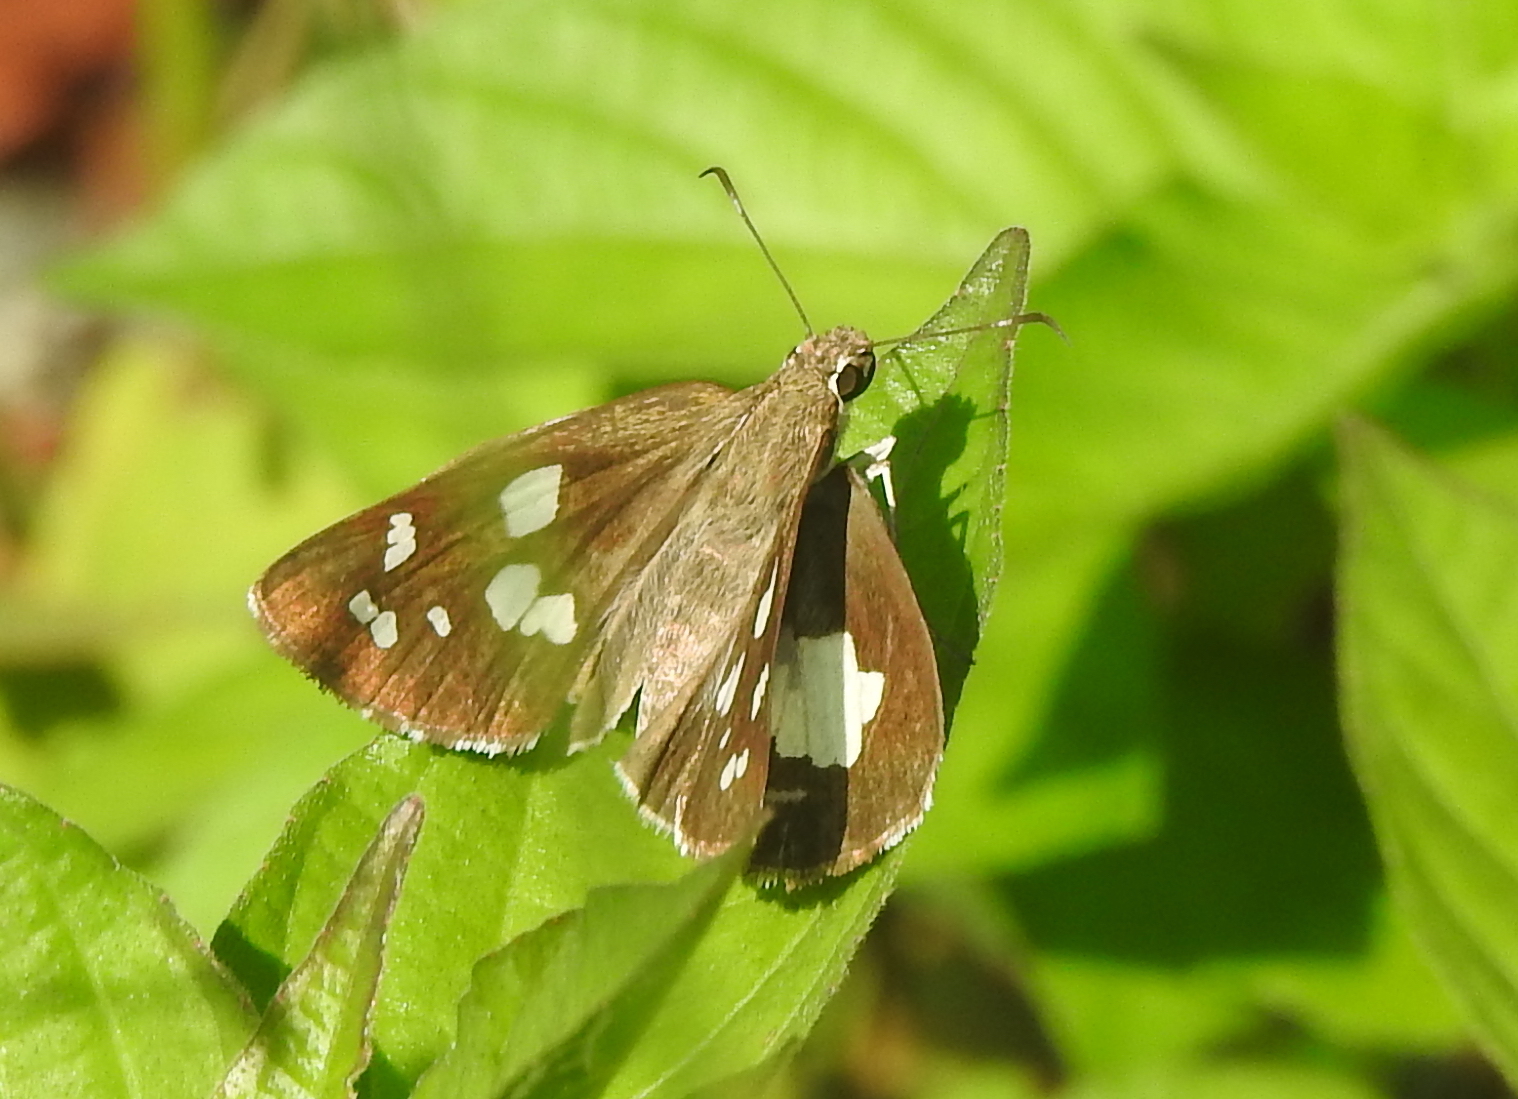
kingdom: Animalia
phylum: Arthropoda
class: Insecta
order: Lepidoptera
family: Hesperiidae
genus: Udaspes
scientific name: Udaspes folus
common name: Grass demon
